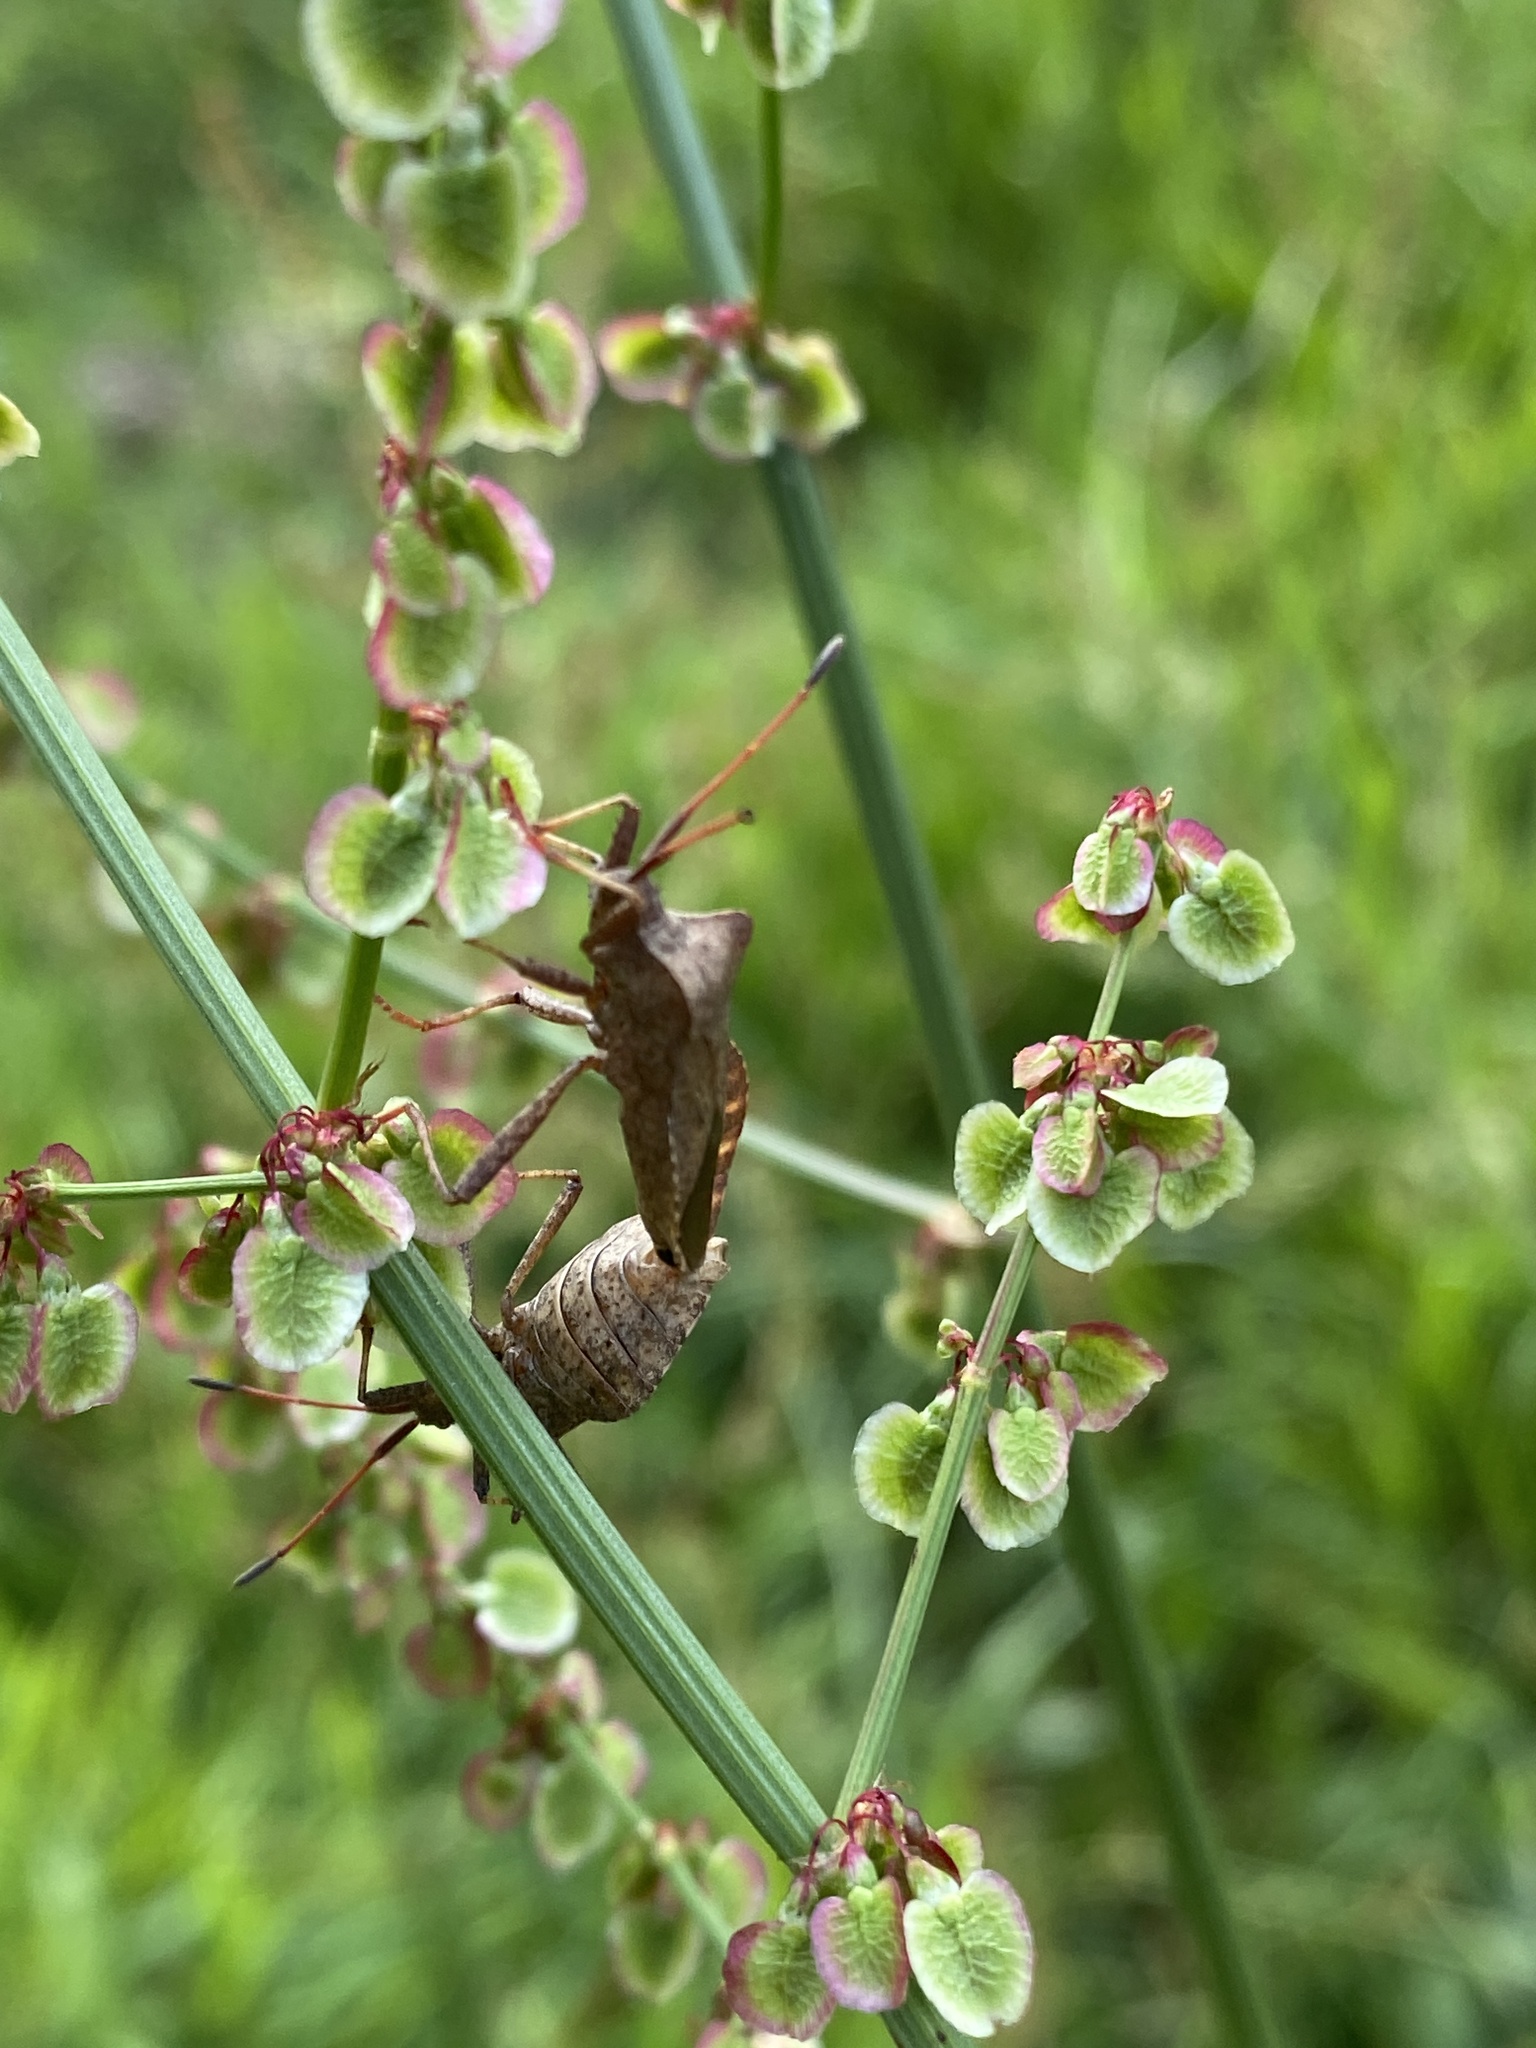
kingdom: Animalia
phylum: Arthropoda
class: Insecta
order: Hemiptera
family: Coreidae
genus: Coreus
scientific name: Coreus marginatus
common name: Dock bug
